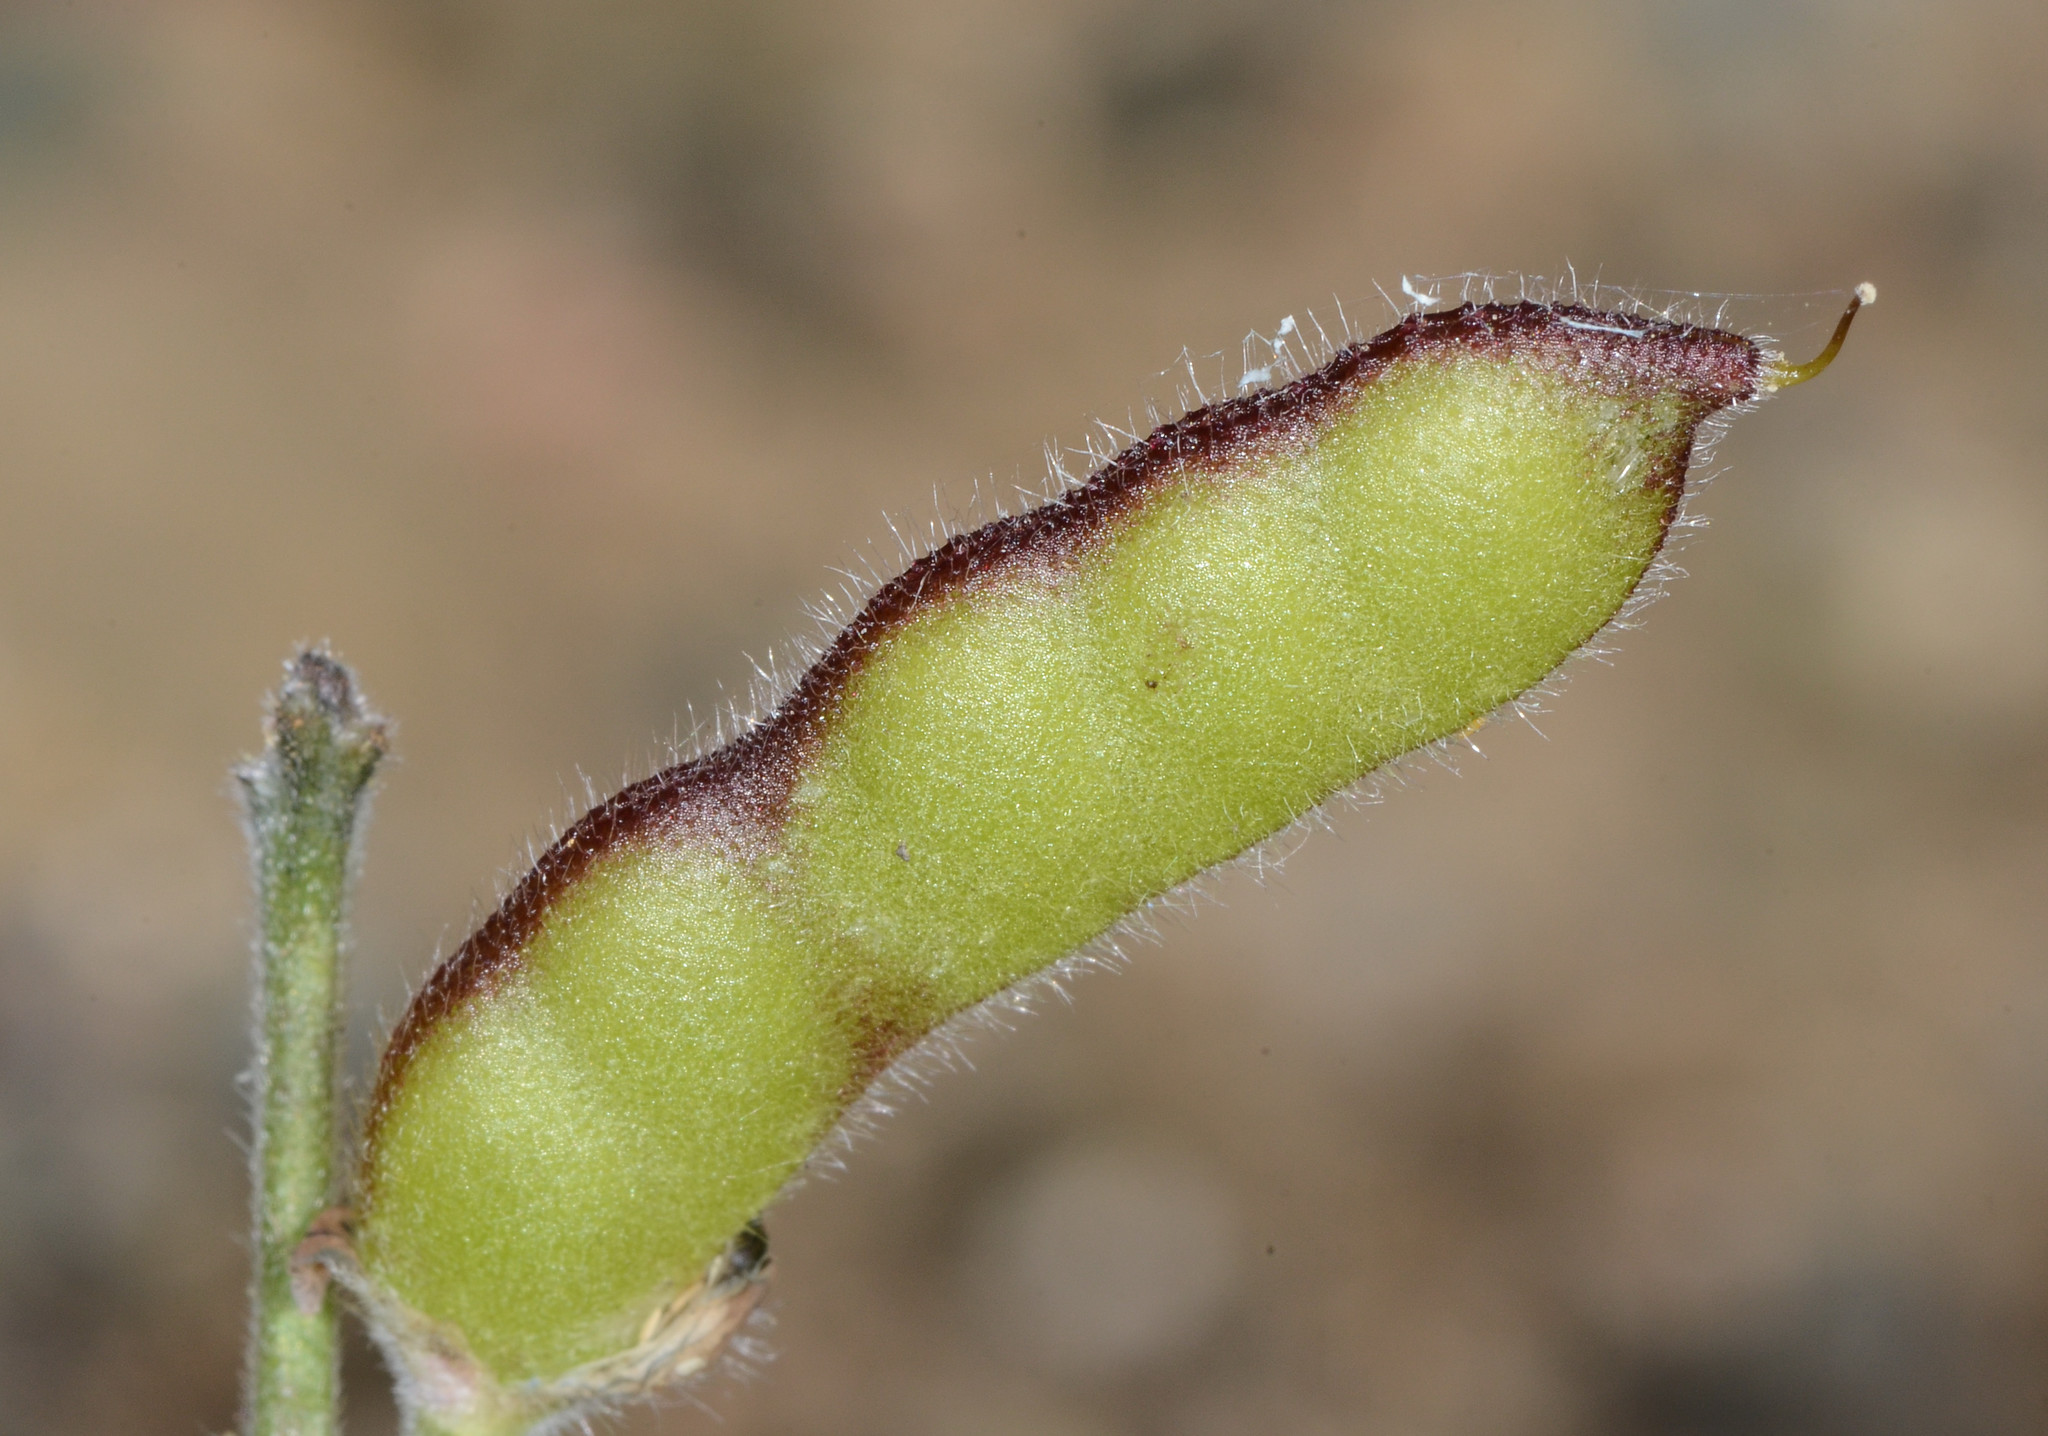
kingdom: Plantae
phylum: Tracheophyta
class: Magnoliopsida
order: Fabales
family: Fabaceae
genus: Lupinus
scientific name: Lupinus bicolor
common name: Miniature lupine
